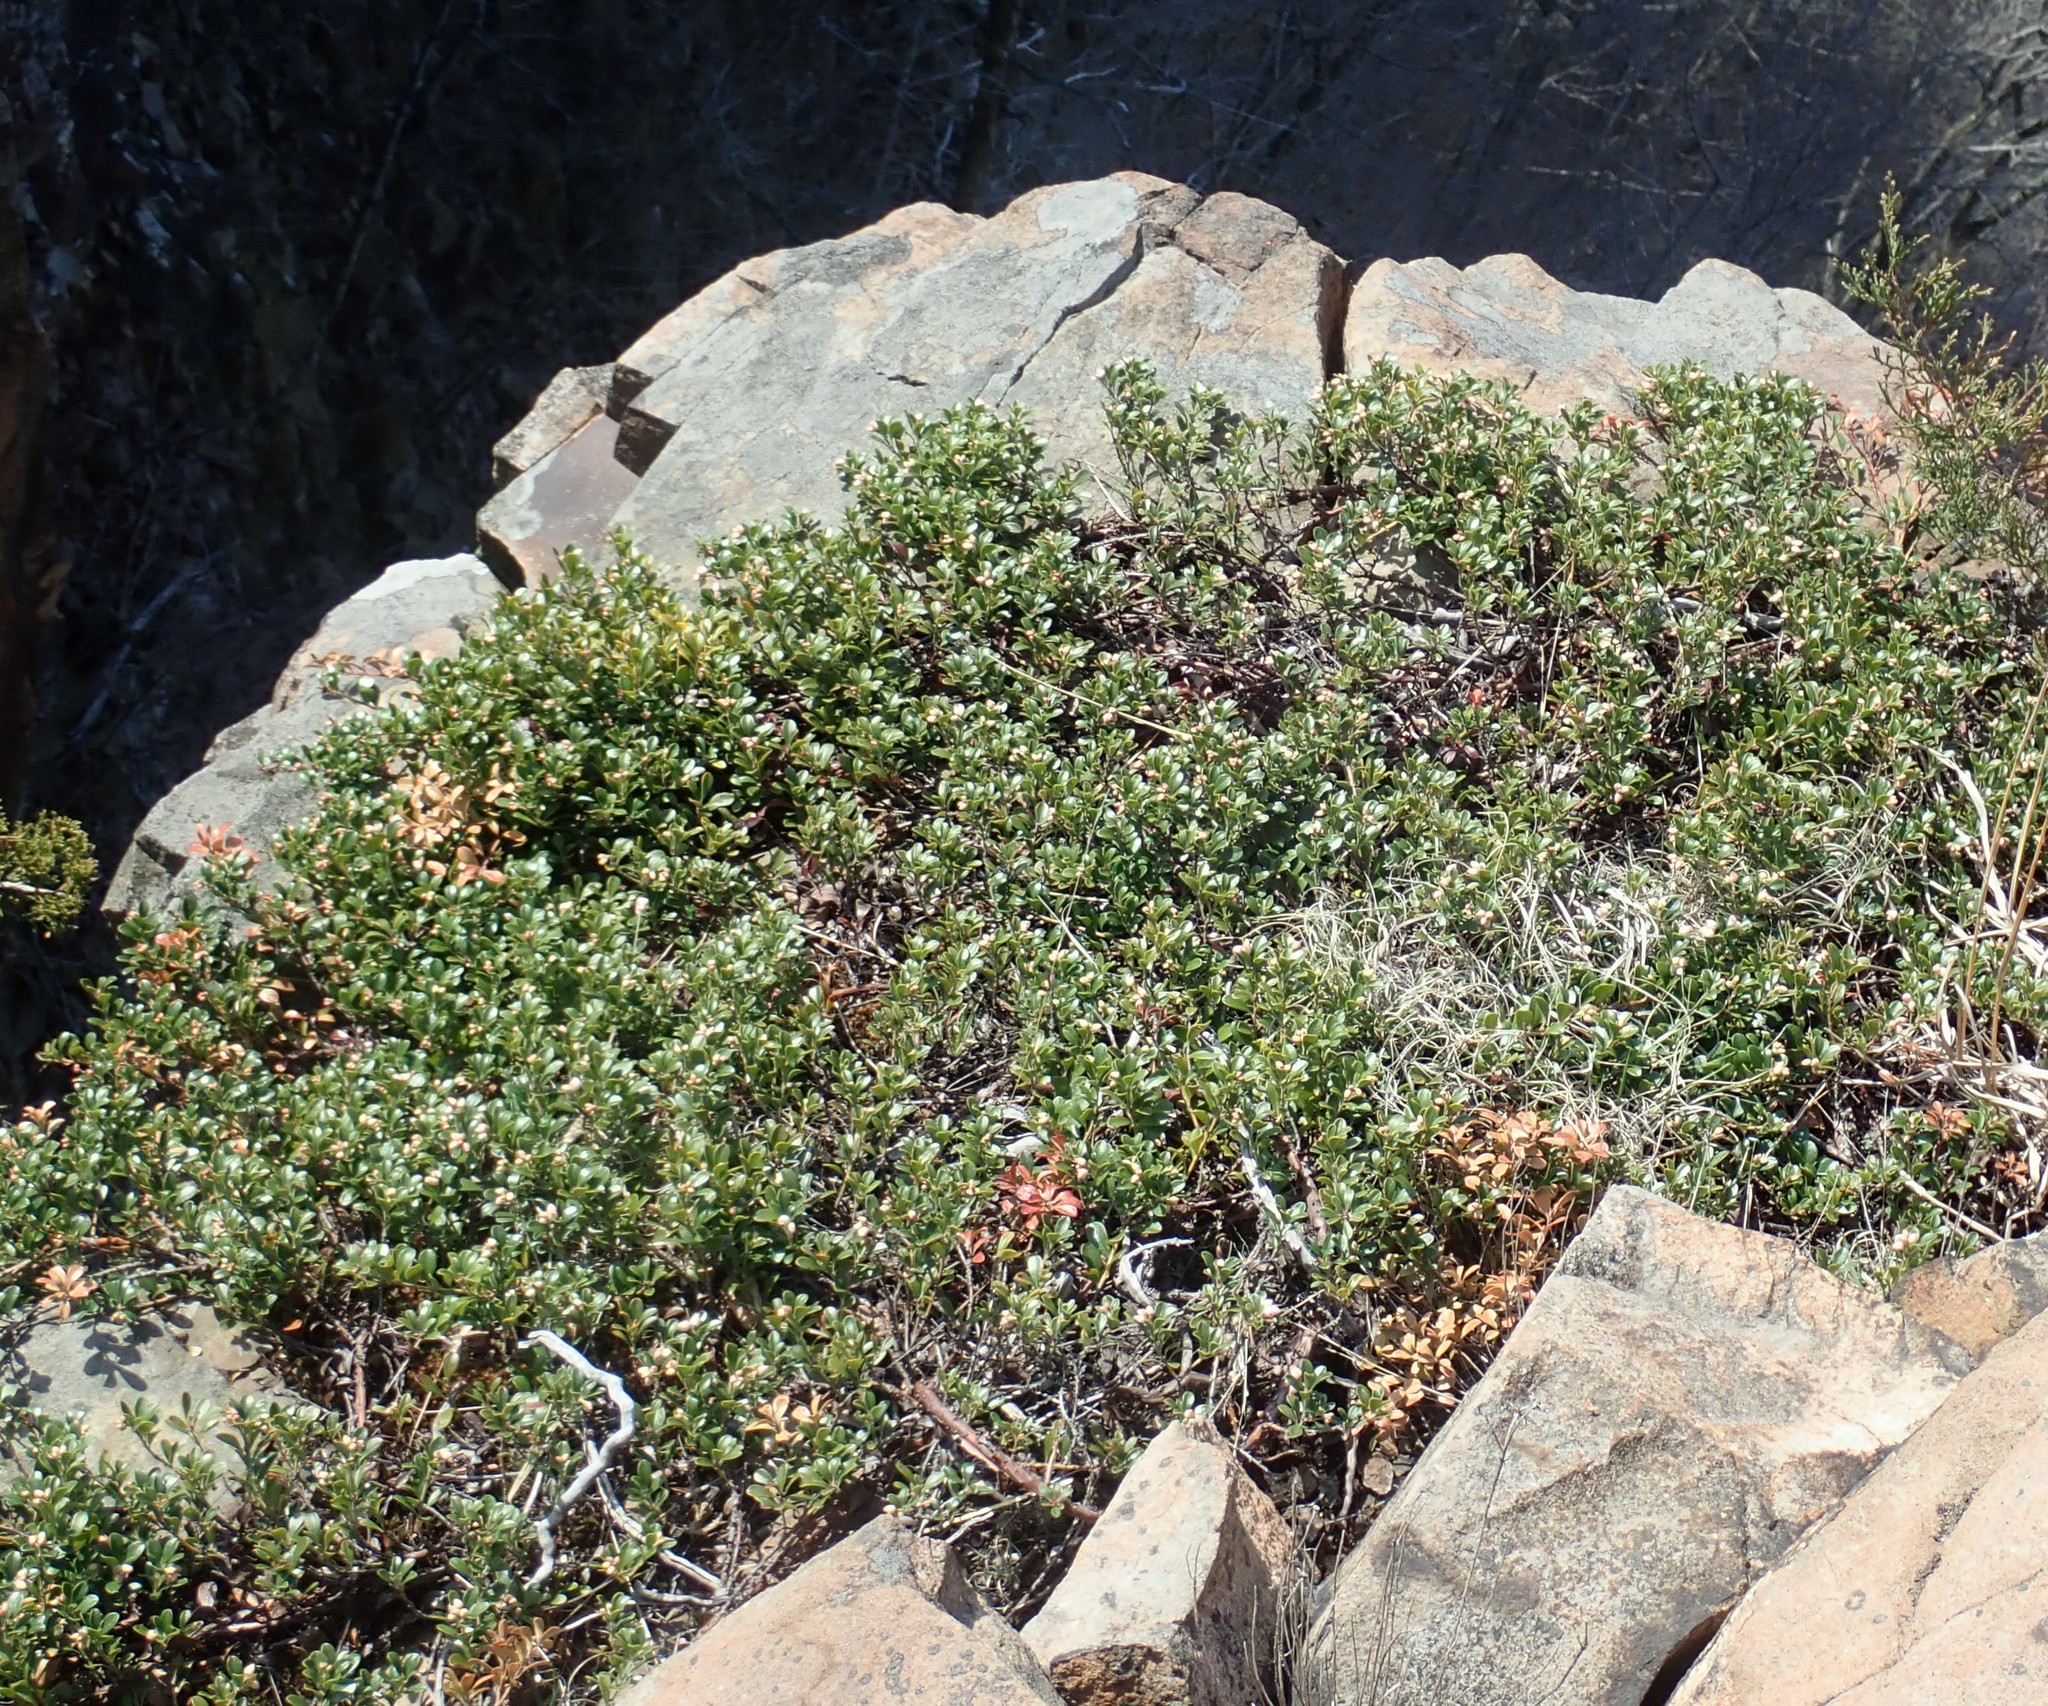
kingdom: Plantae
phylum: Tracheophyta
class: Magnoliopsida
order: Ericales
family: Ericaceae
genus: Arctostaphylos
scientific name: Arctostaphylos uva-ursi
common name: Bearberry
